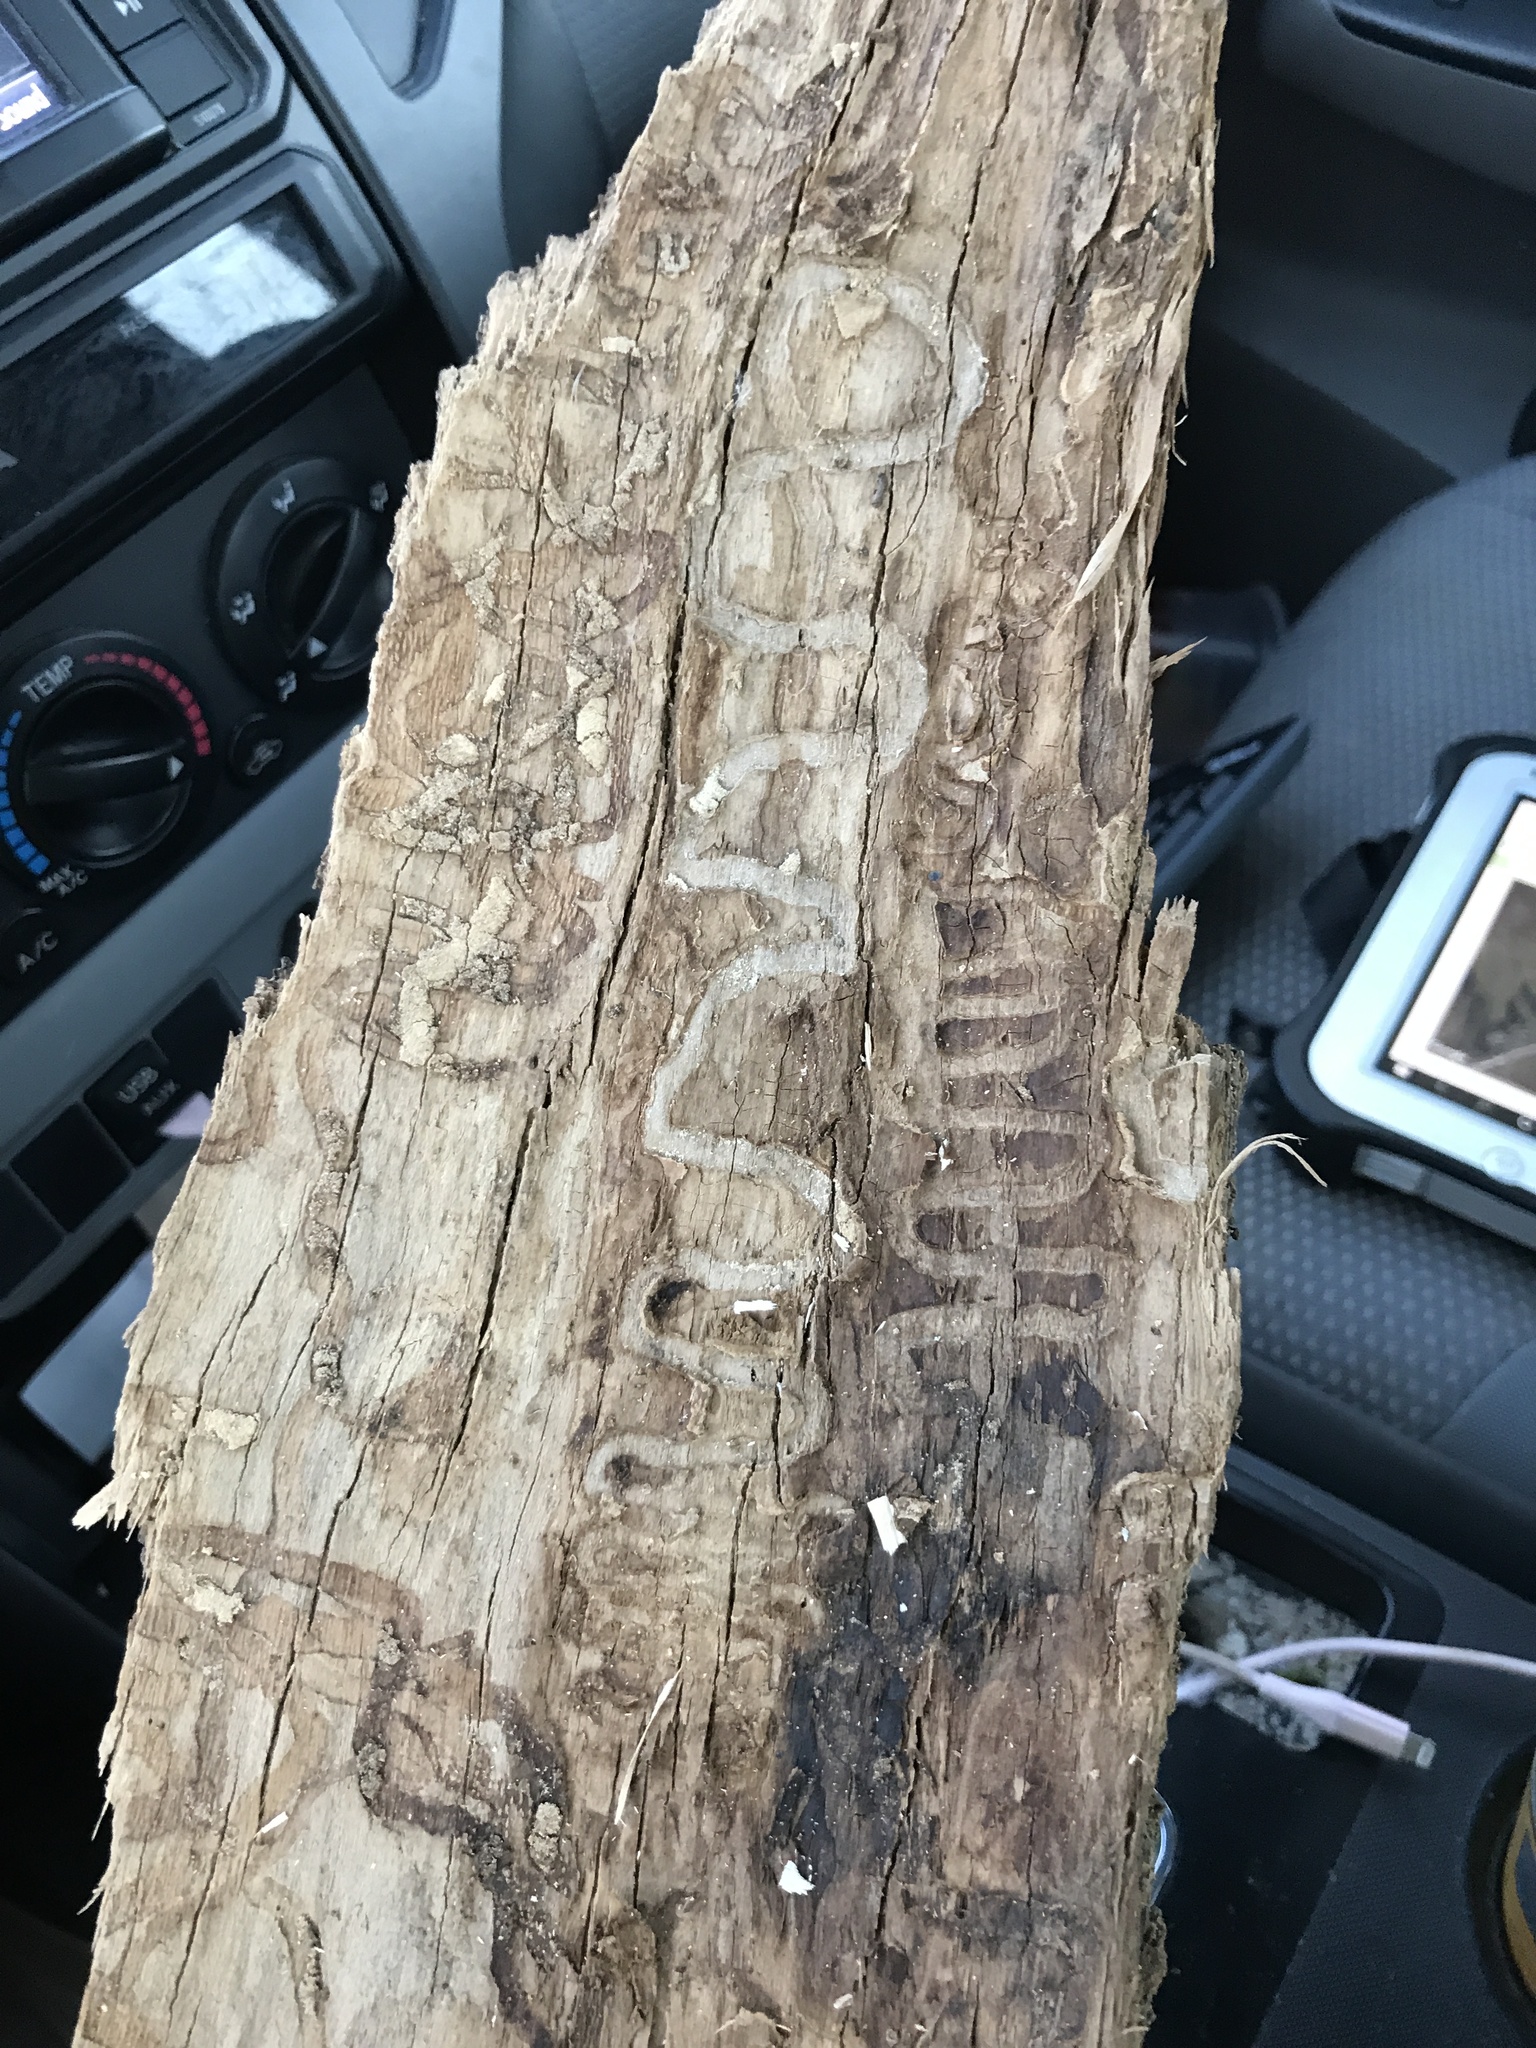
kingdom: Animalia
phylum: Arthropoda
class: Insecta
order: Coleoptera
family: Buprestidae
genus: Agrilus
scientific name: Agrilus planipennis
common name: Emerald ash borer
